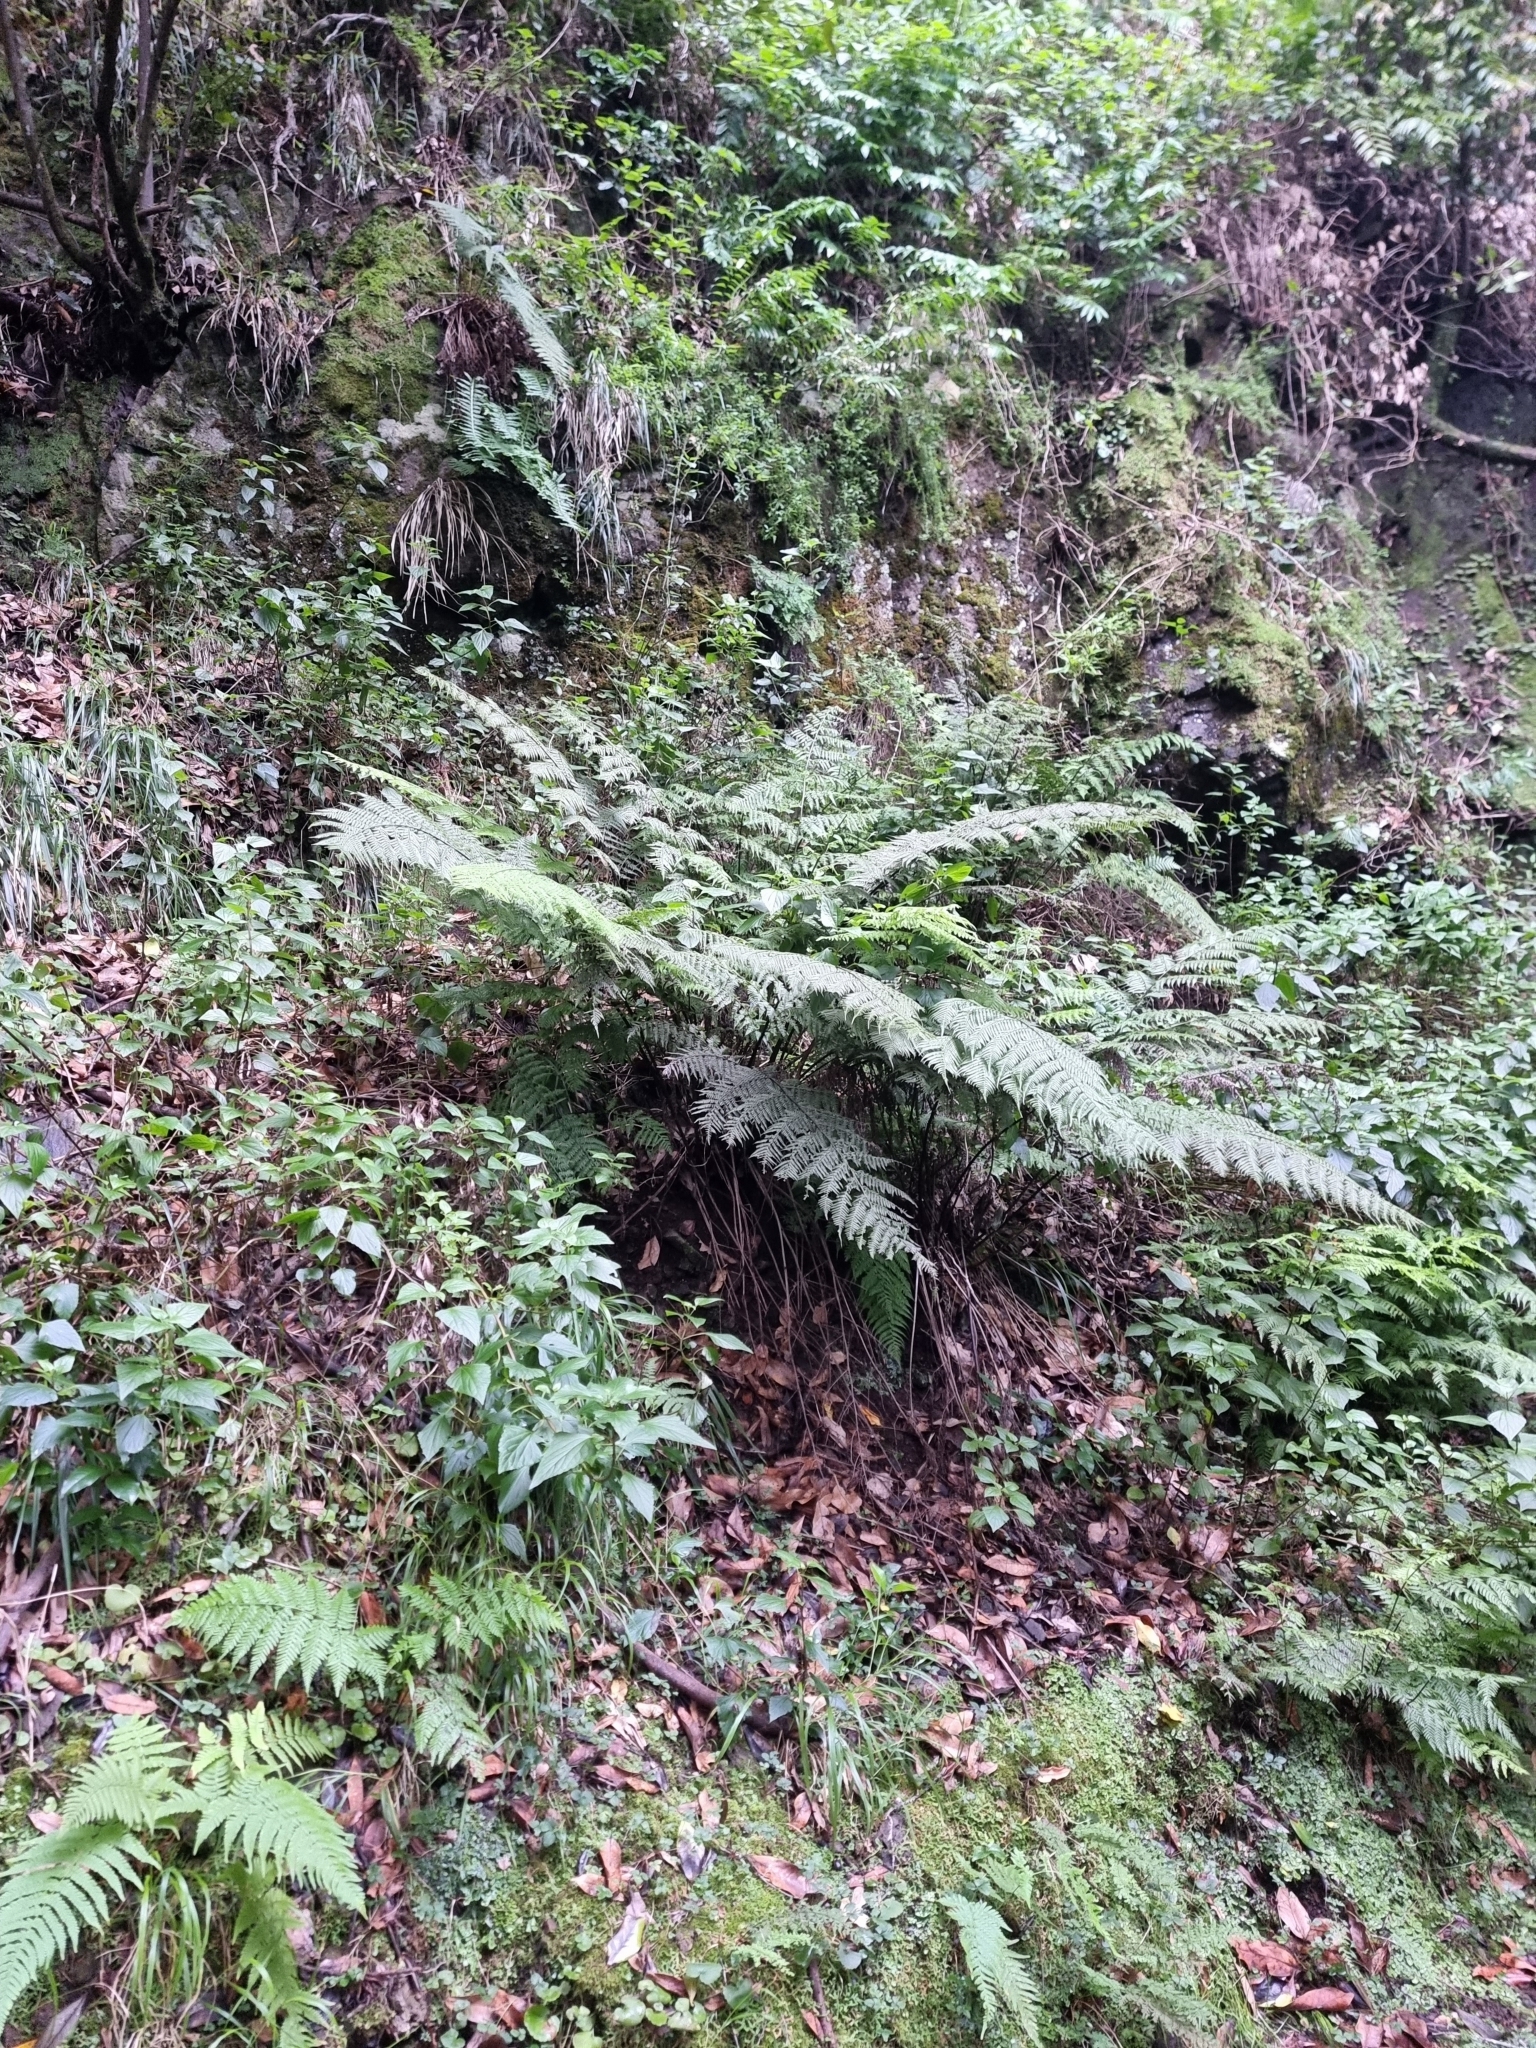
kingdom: Plantae
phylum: Tracheophyta
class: Polypodiopsida
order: Polypodiales
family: Athyriaceae
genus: Diplazium
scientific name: Diplazium caudatum
